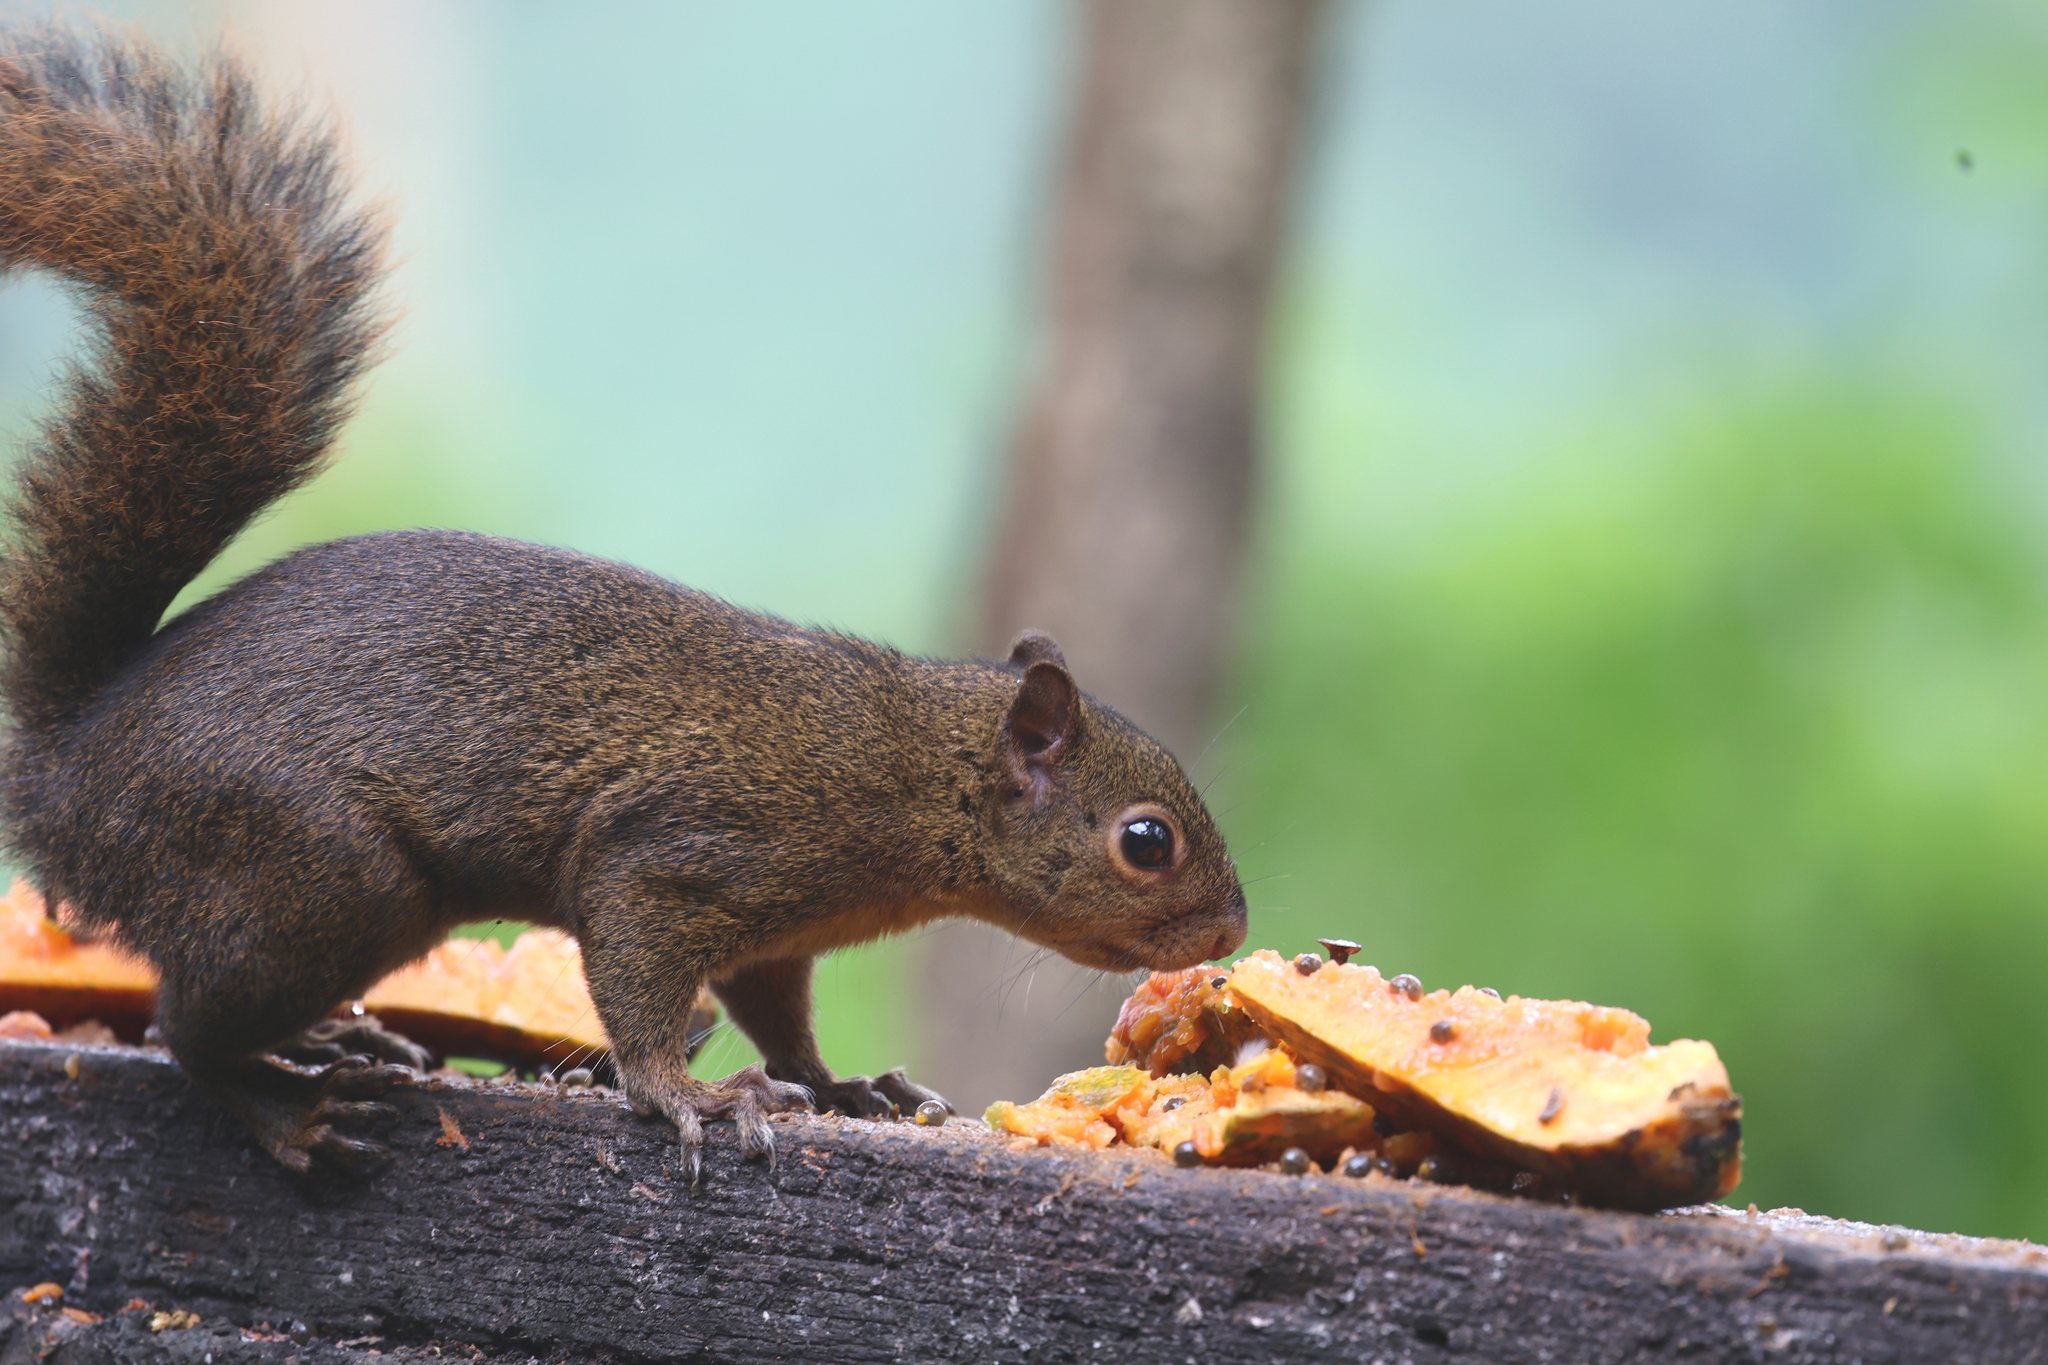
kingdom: Animalia
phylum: Chordata
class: Mammalia
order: Rodentia
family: Sciuridae
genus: Sciurus
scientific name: Sciurus granatensis
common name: Red-tailed squirrel
